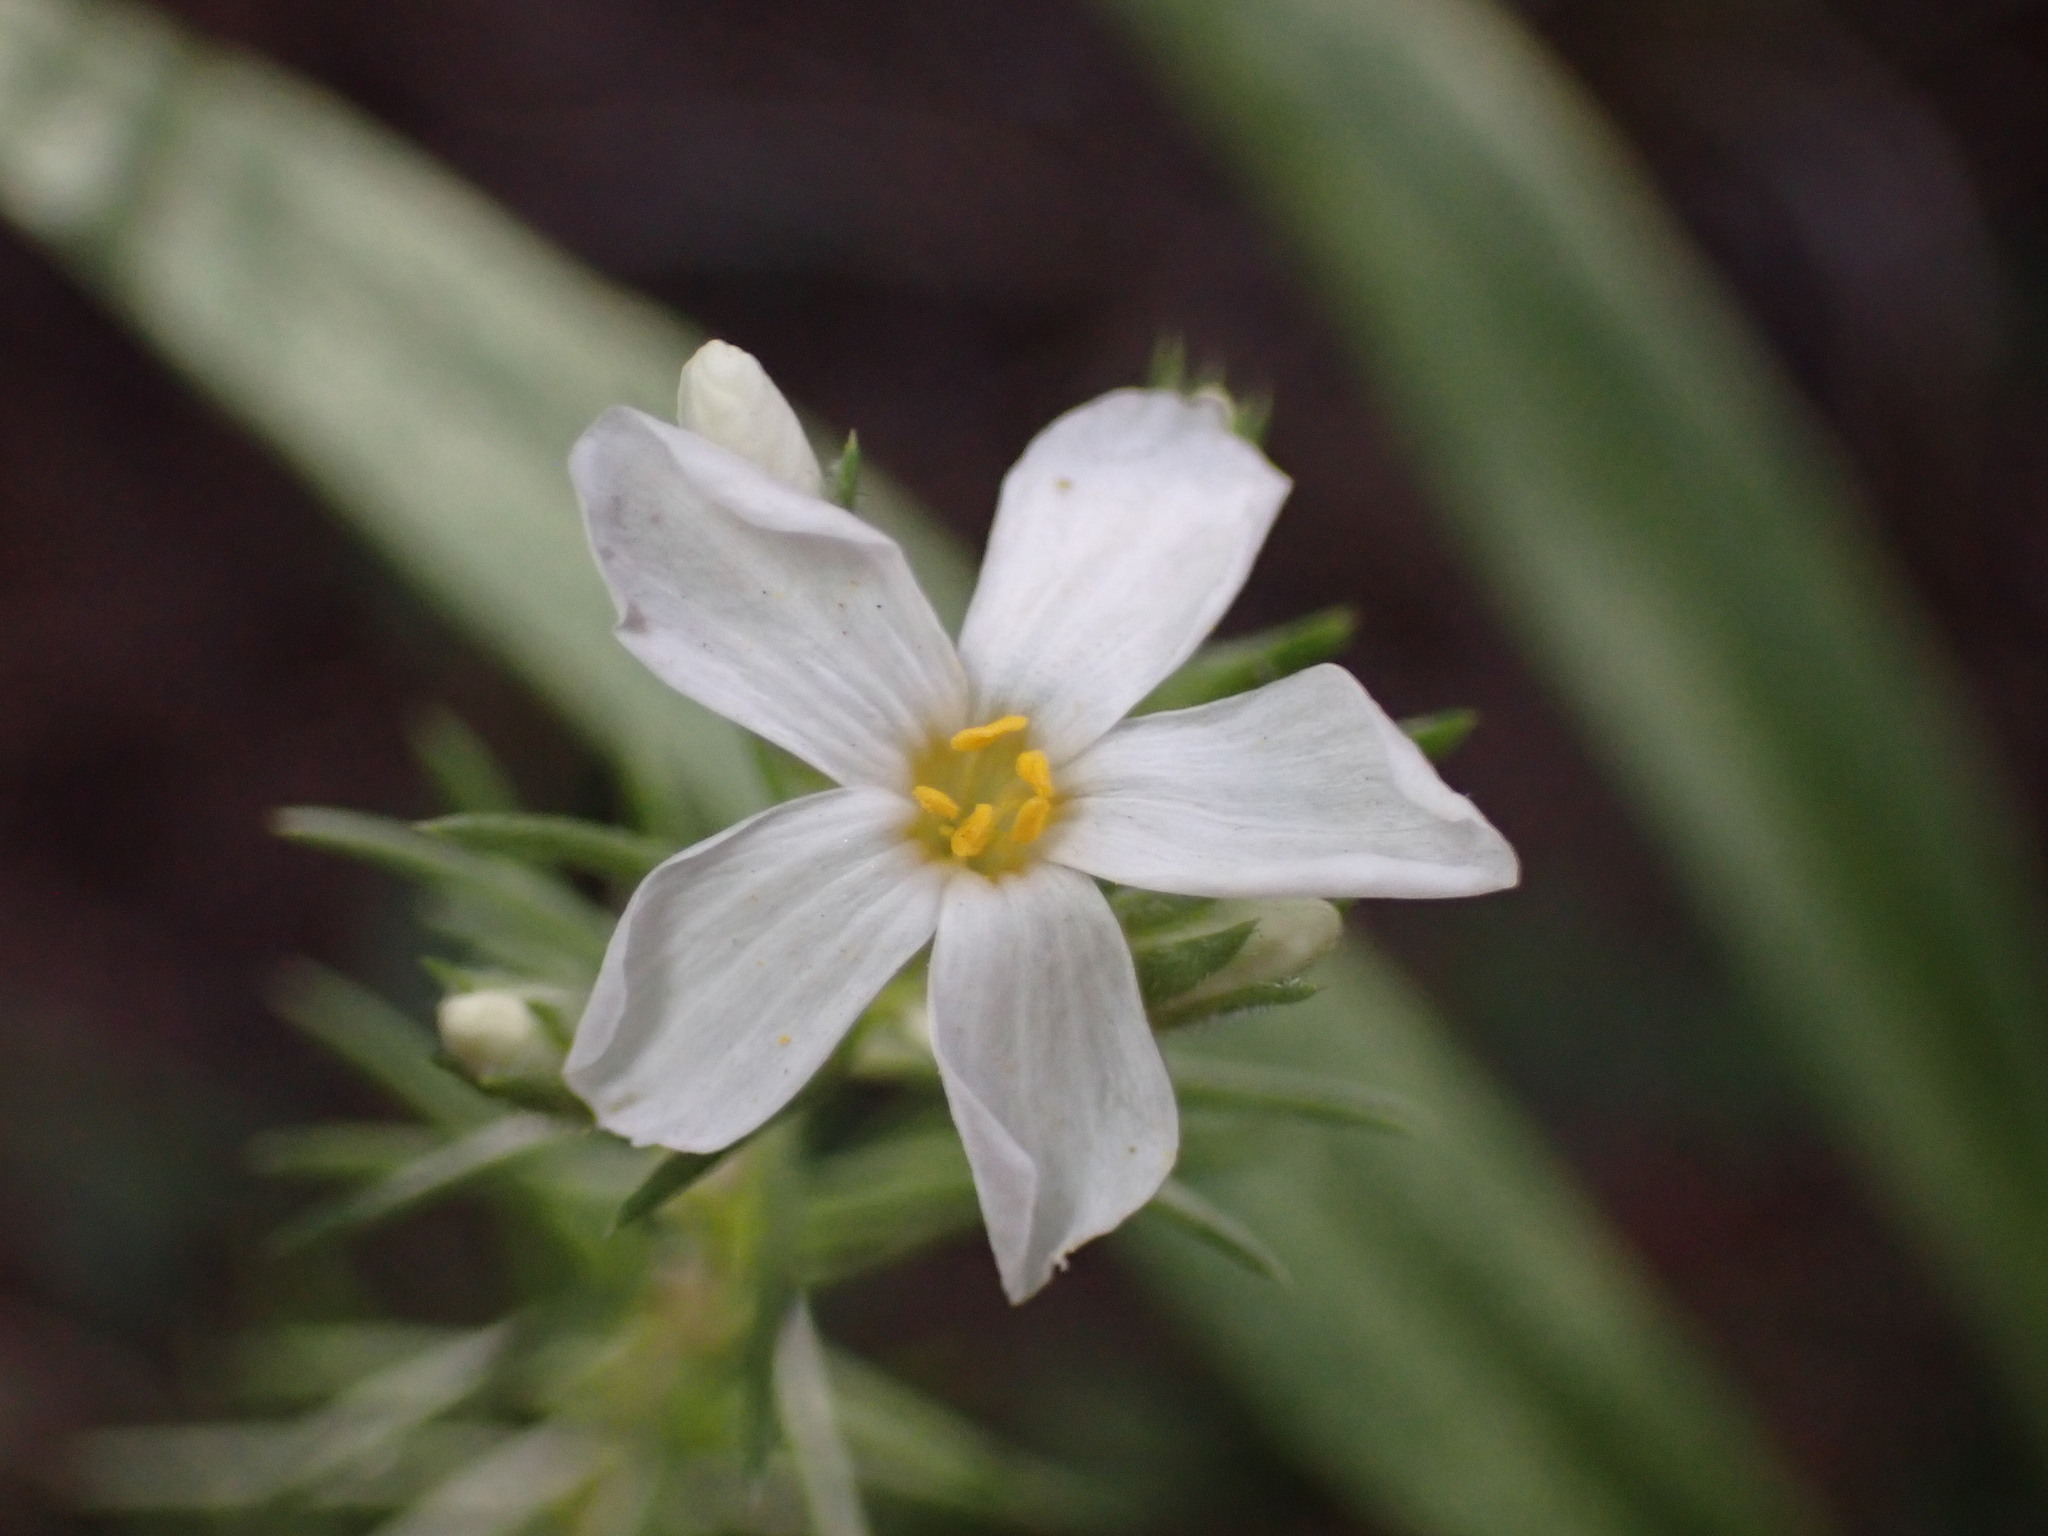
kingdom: Plantae
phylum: Tracheophyta
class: Magnoliopsida
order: Ericales
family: Polemoniaceae
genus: Leptosiphon
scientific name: Leptosiphon nuttallii
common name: Nuttall's linanthus
